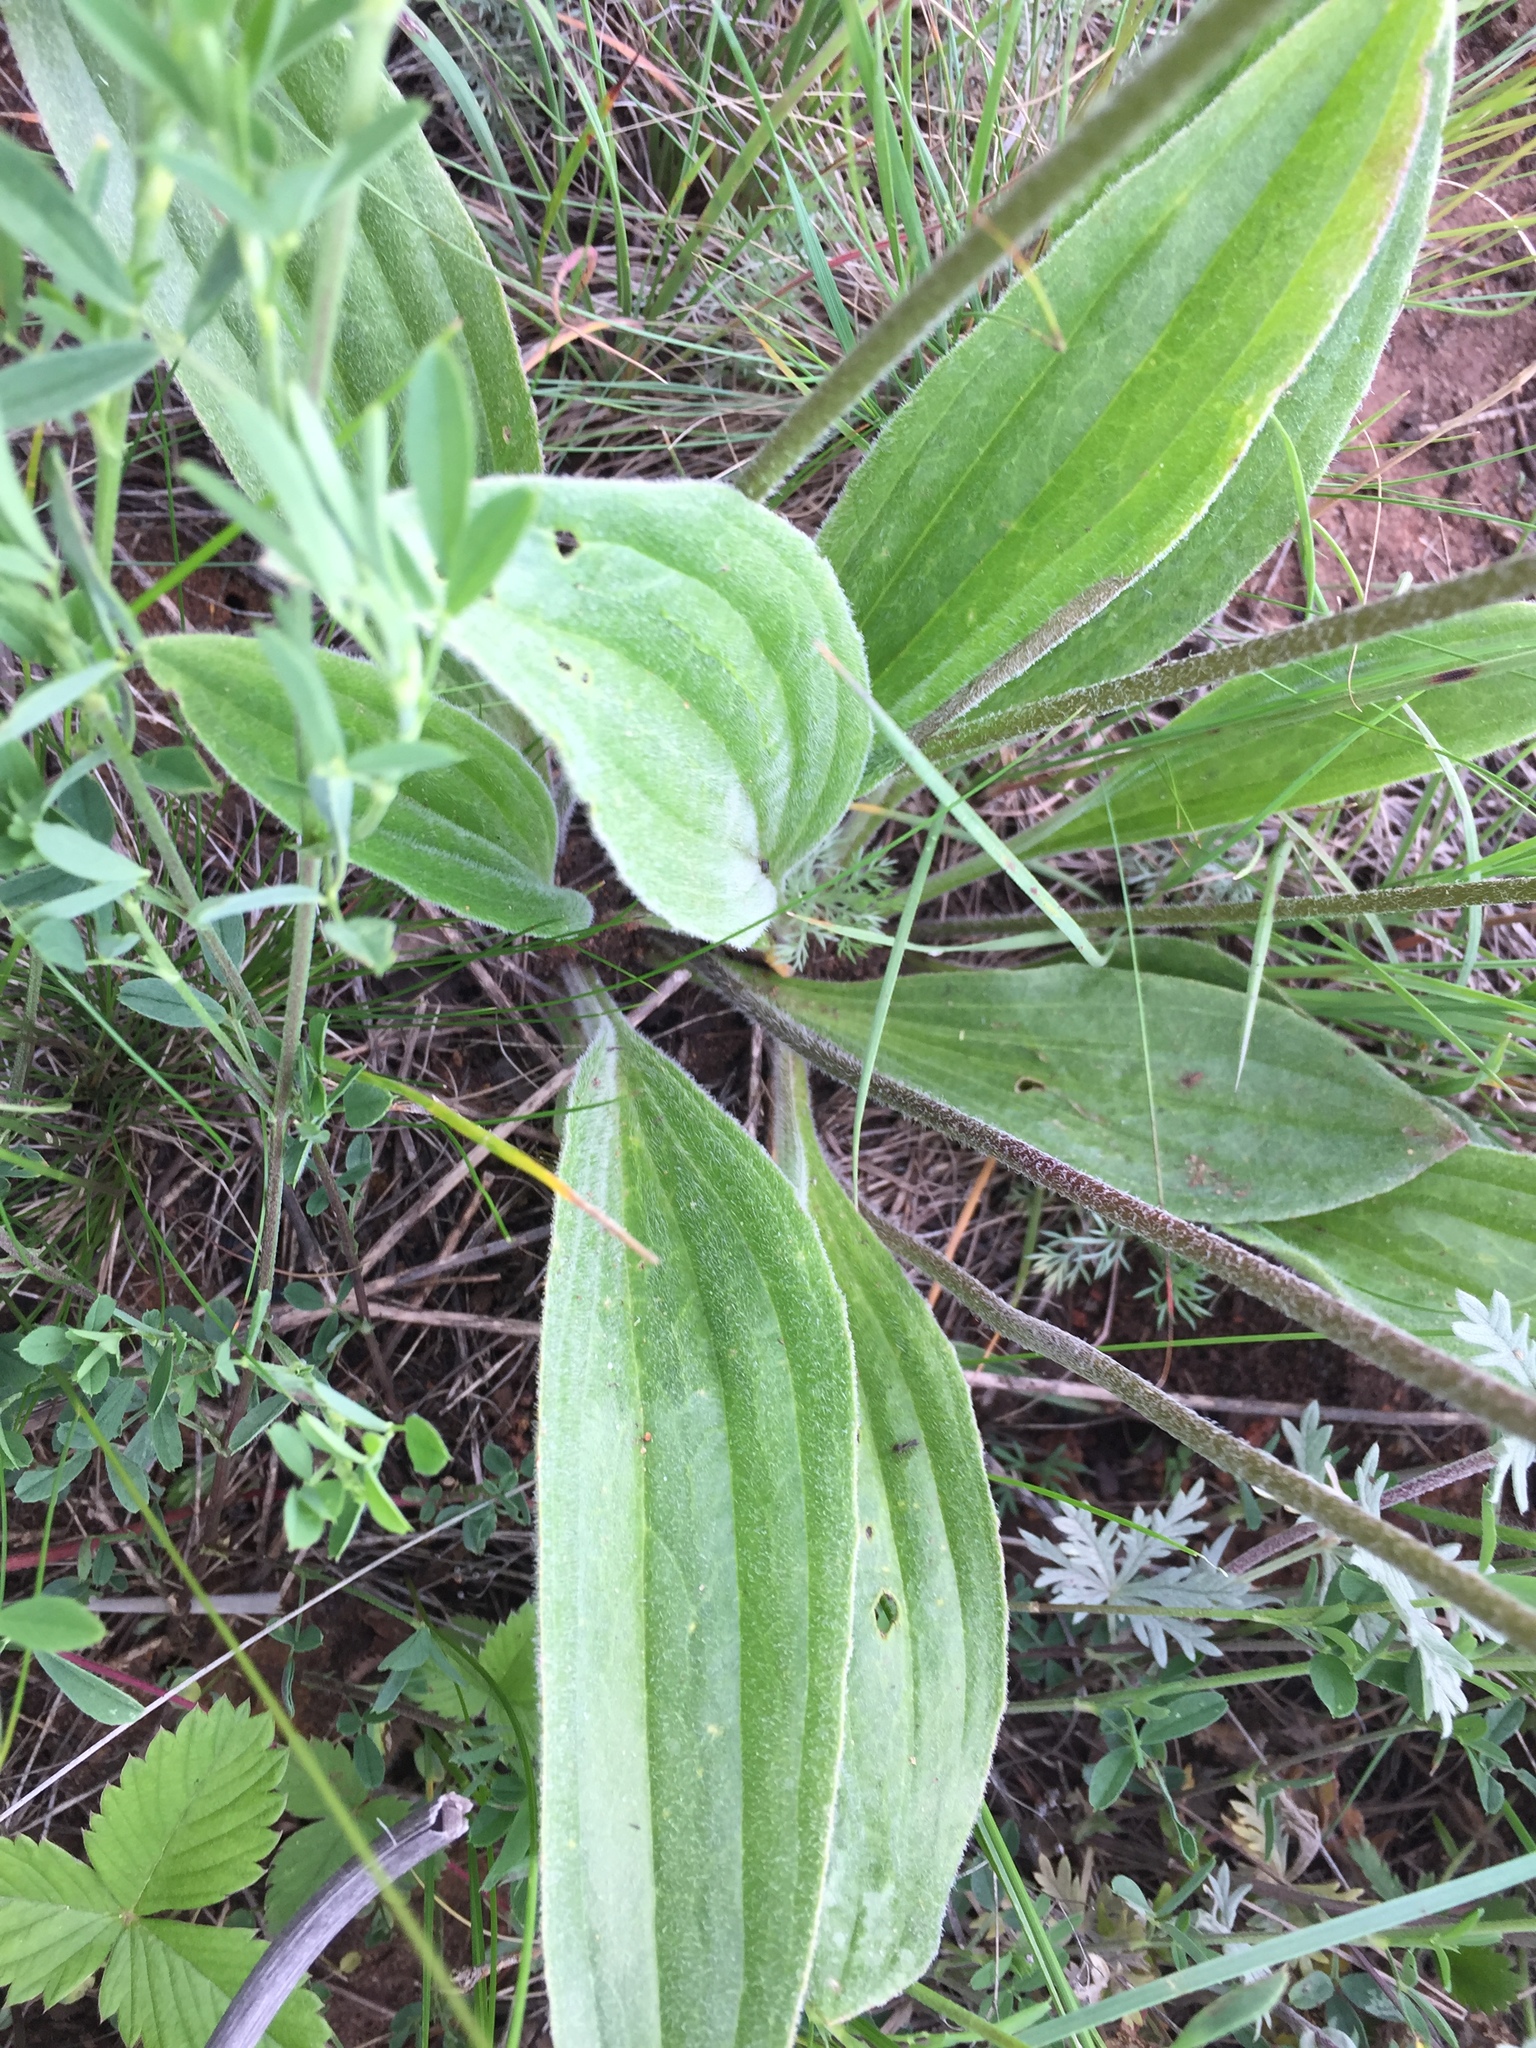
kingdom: Plantae
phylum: Tracheophyta
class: Magnoliopsida
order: Lamiales
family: Plantaginaceae
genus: Plantago
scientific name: Plantago urvillei
